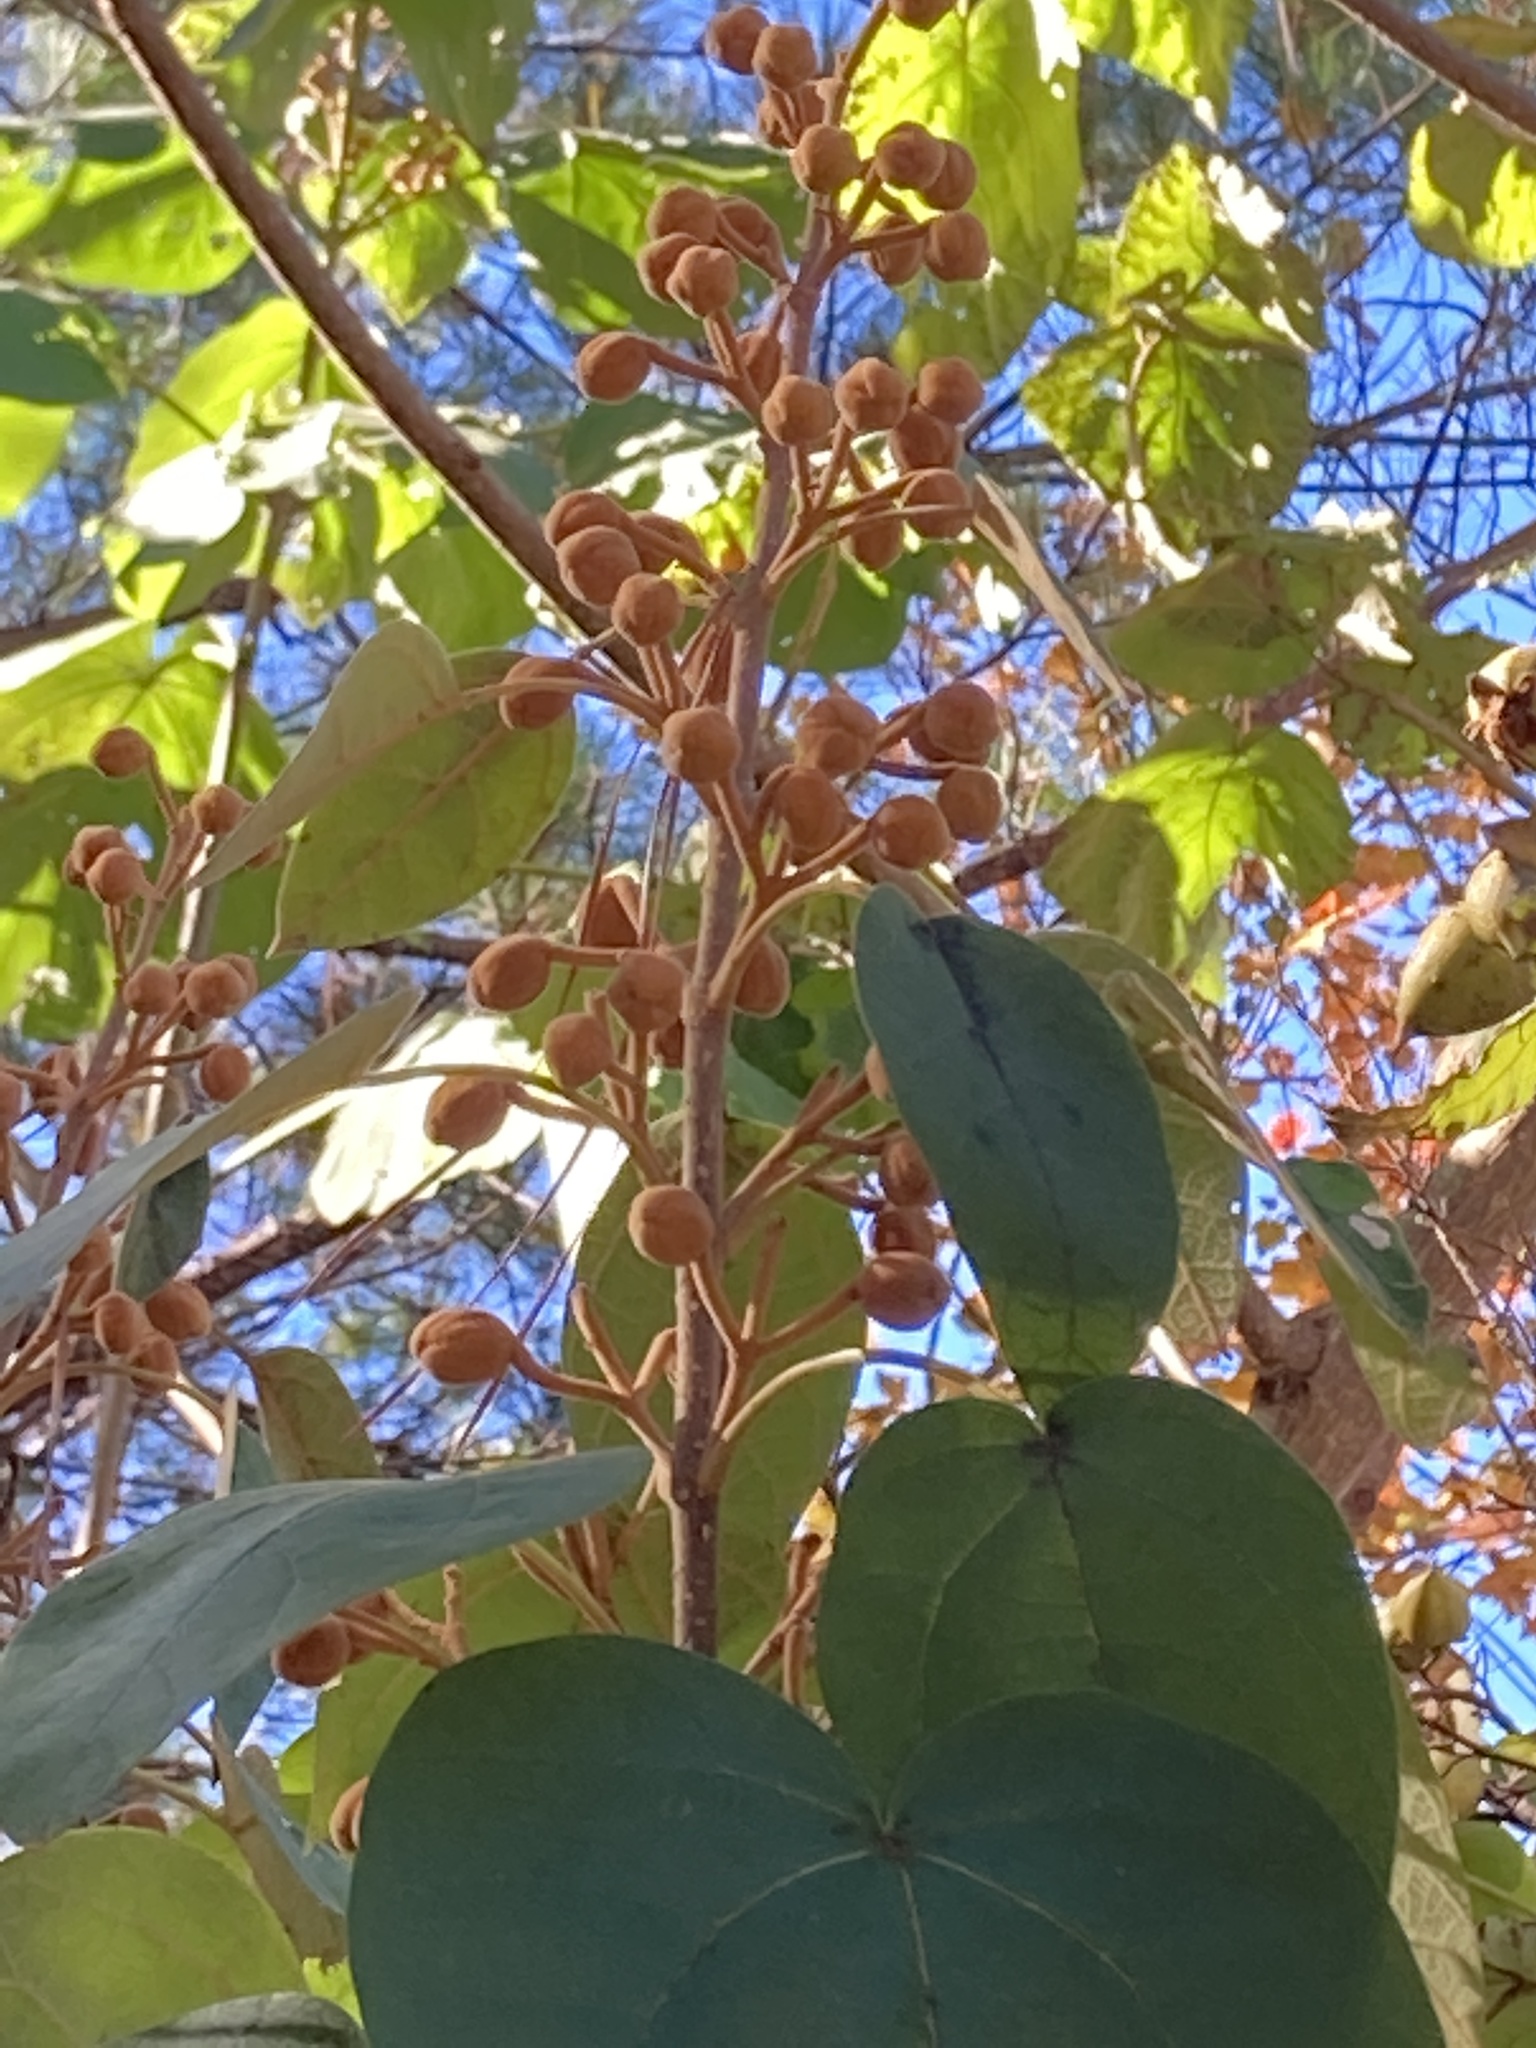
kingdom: Plantae
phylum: Tracheophyta
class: Magnoliopsida
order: Lamiales
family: Paulowniaceae
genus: Paulownia
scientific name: Paulownia tomentosa
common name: Foxglove-tree
